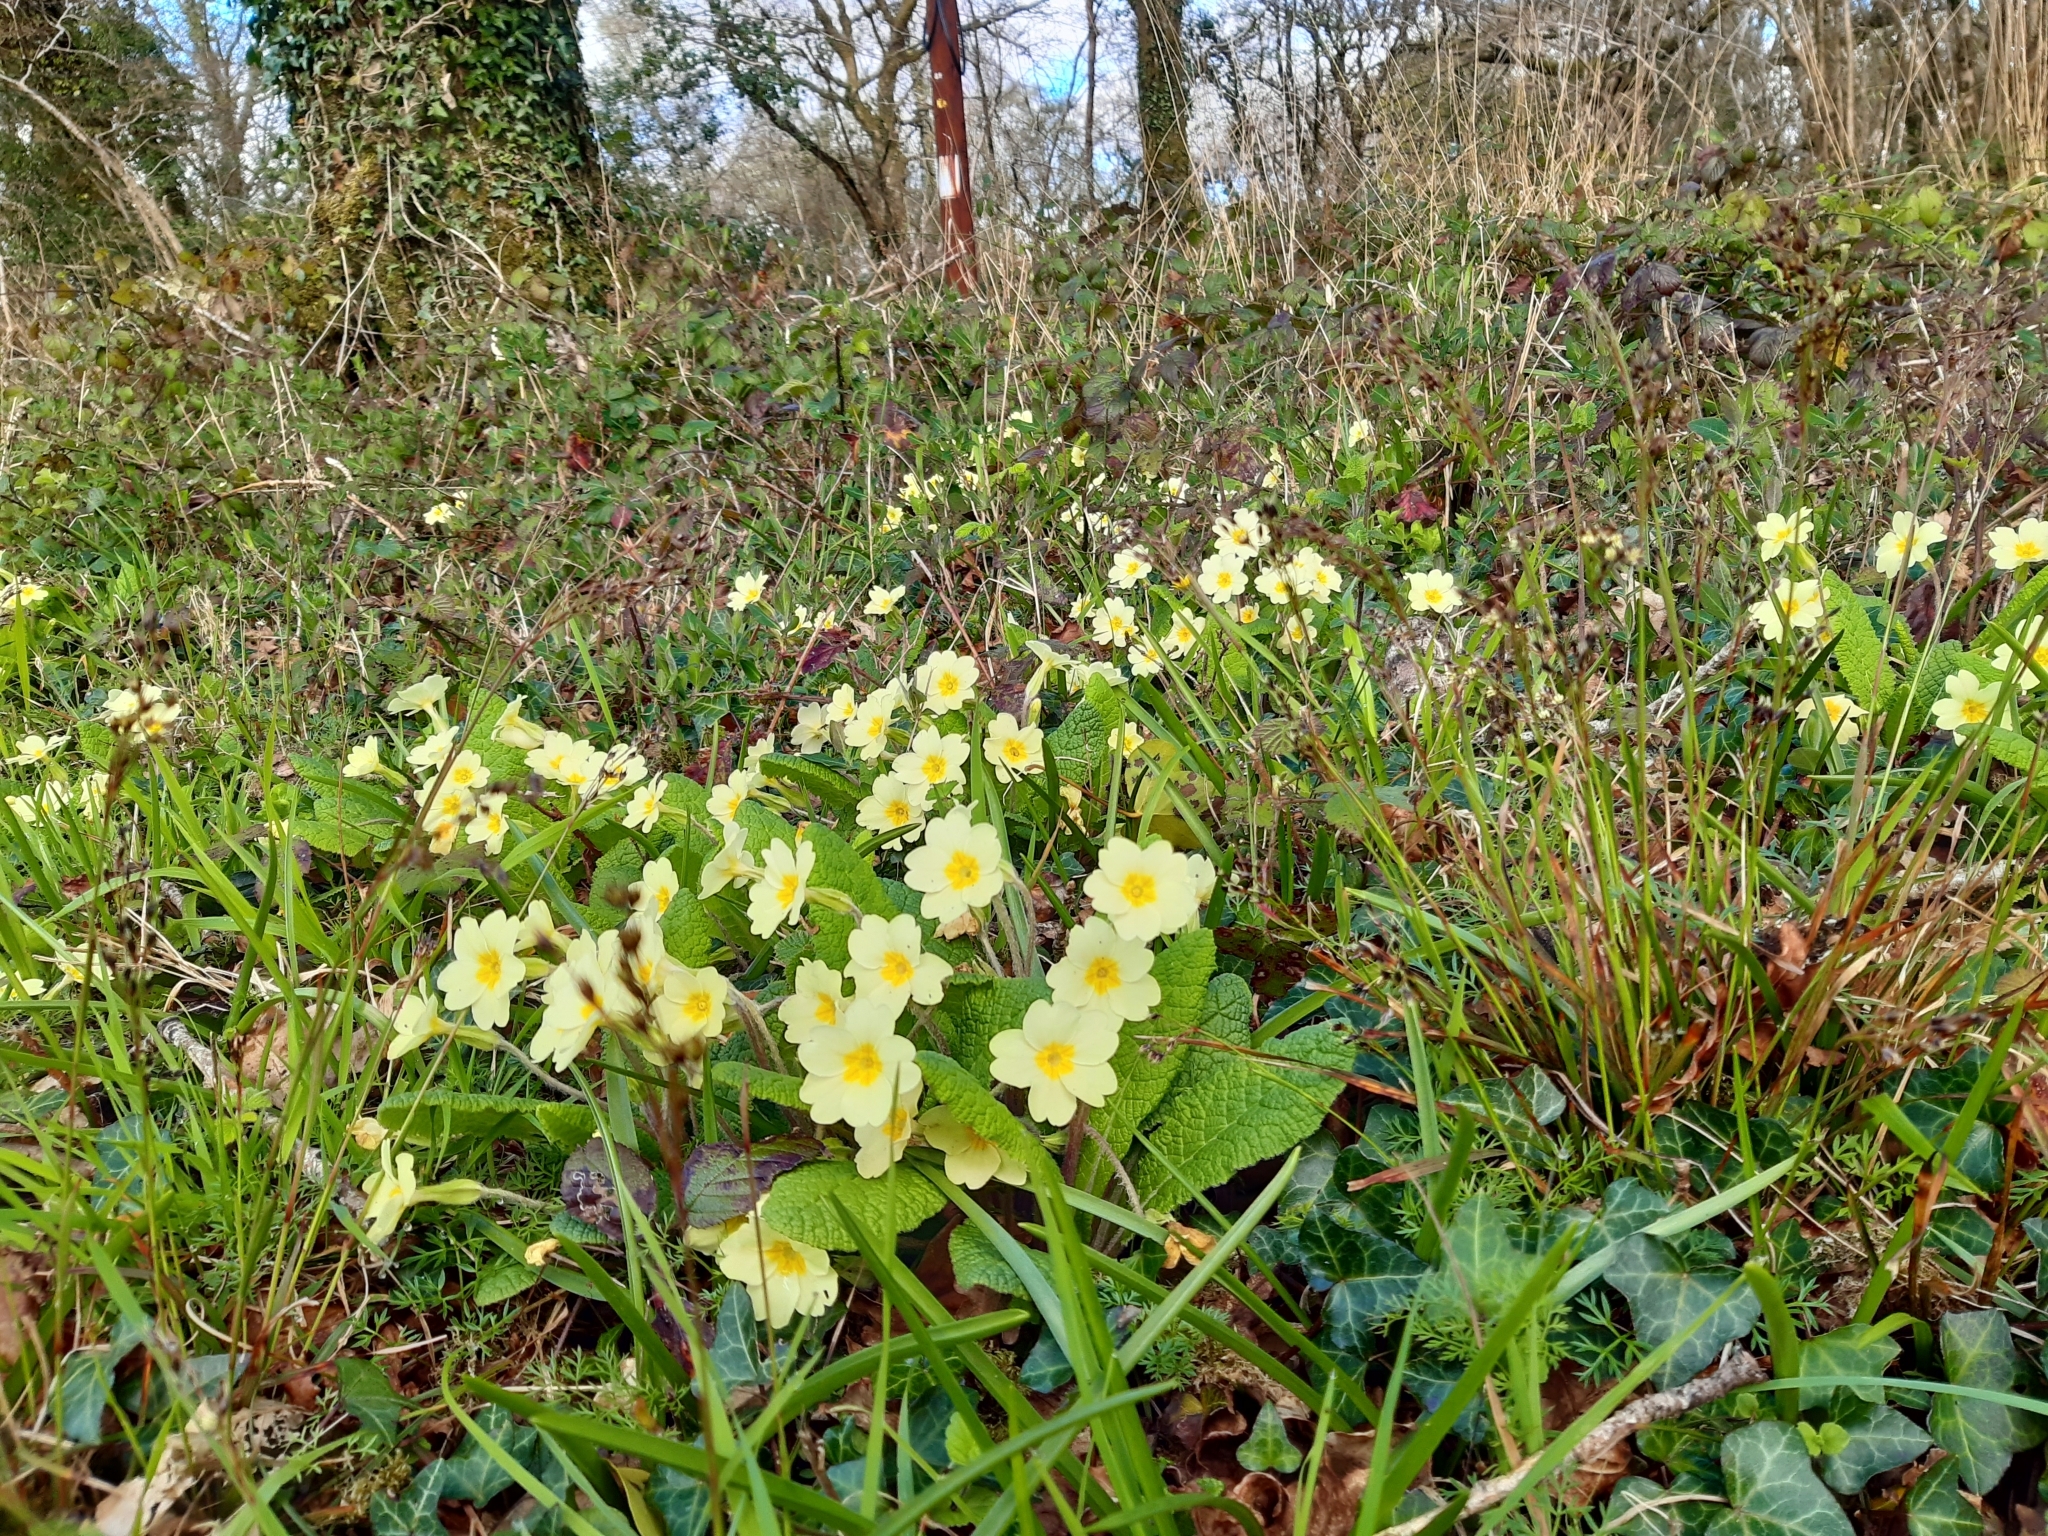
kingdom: Plantae
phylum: Tracheophyta
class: Magnoliopsida
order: Ericales
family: Primulaceae
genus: Primula
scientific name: Primula vulgaris
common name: Primrose
